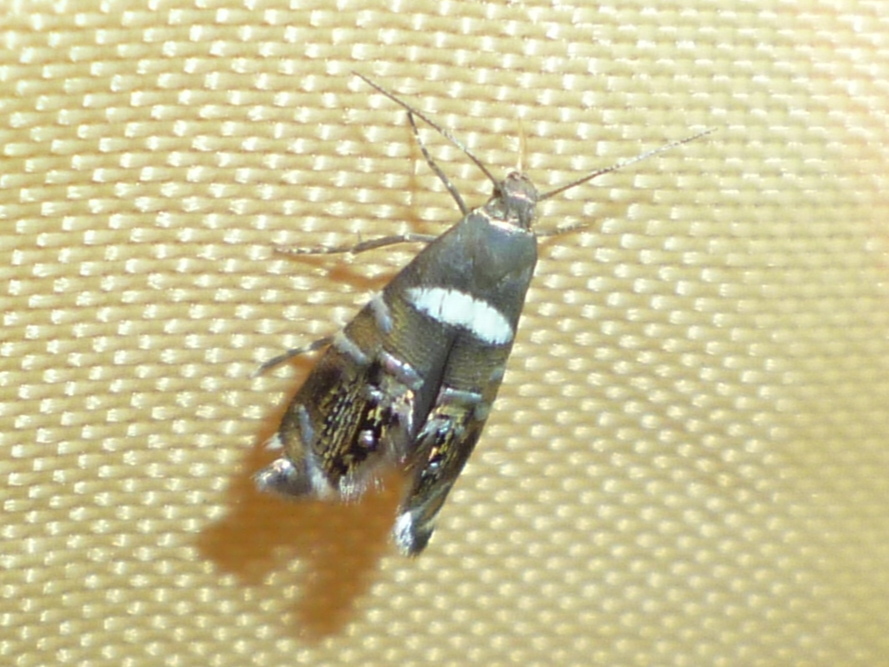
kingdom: Animalia
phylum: Arthropoda
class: Insecta
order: Lepidoptera
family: Glyphipterigidae
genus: Glyphipterix
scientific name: Glyphipterix circumscriptella
